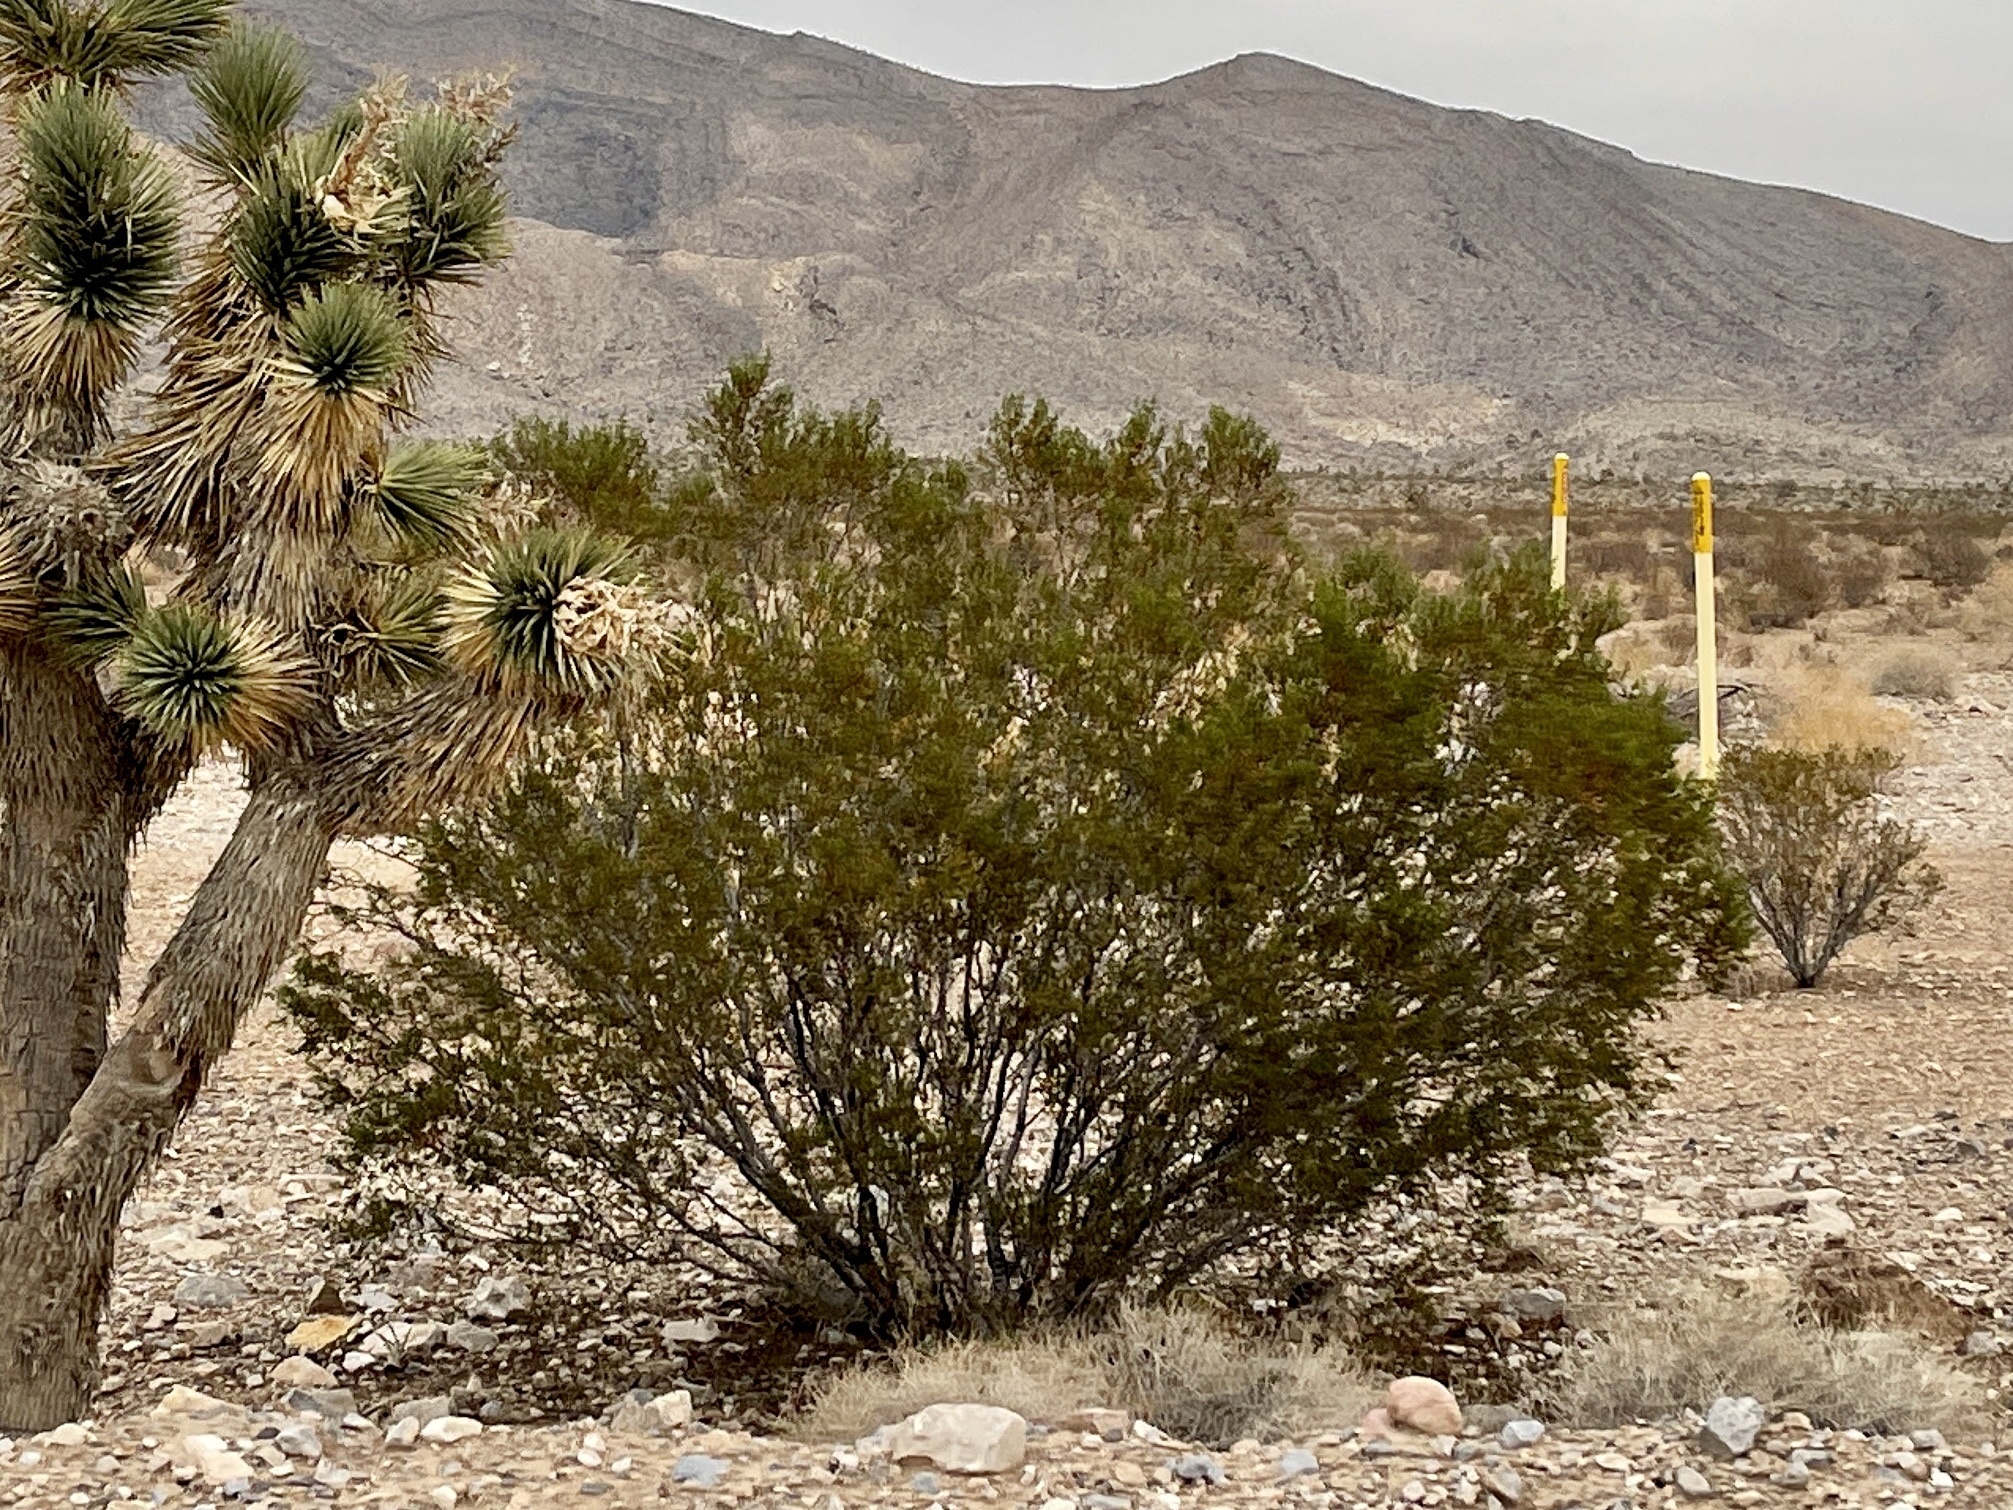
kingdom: Plantae
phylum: Tracheophyta
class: Magnoliopsida
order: Zygophyllales
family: Zygophyllaceae
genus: Larrea
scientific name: Larrea tridentata
